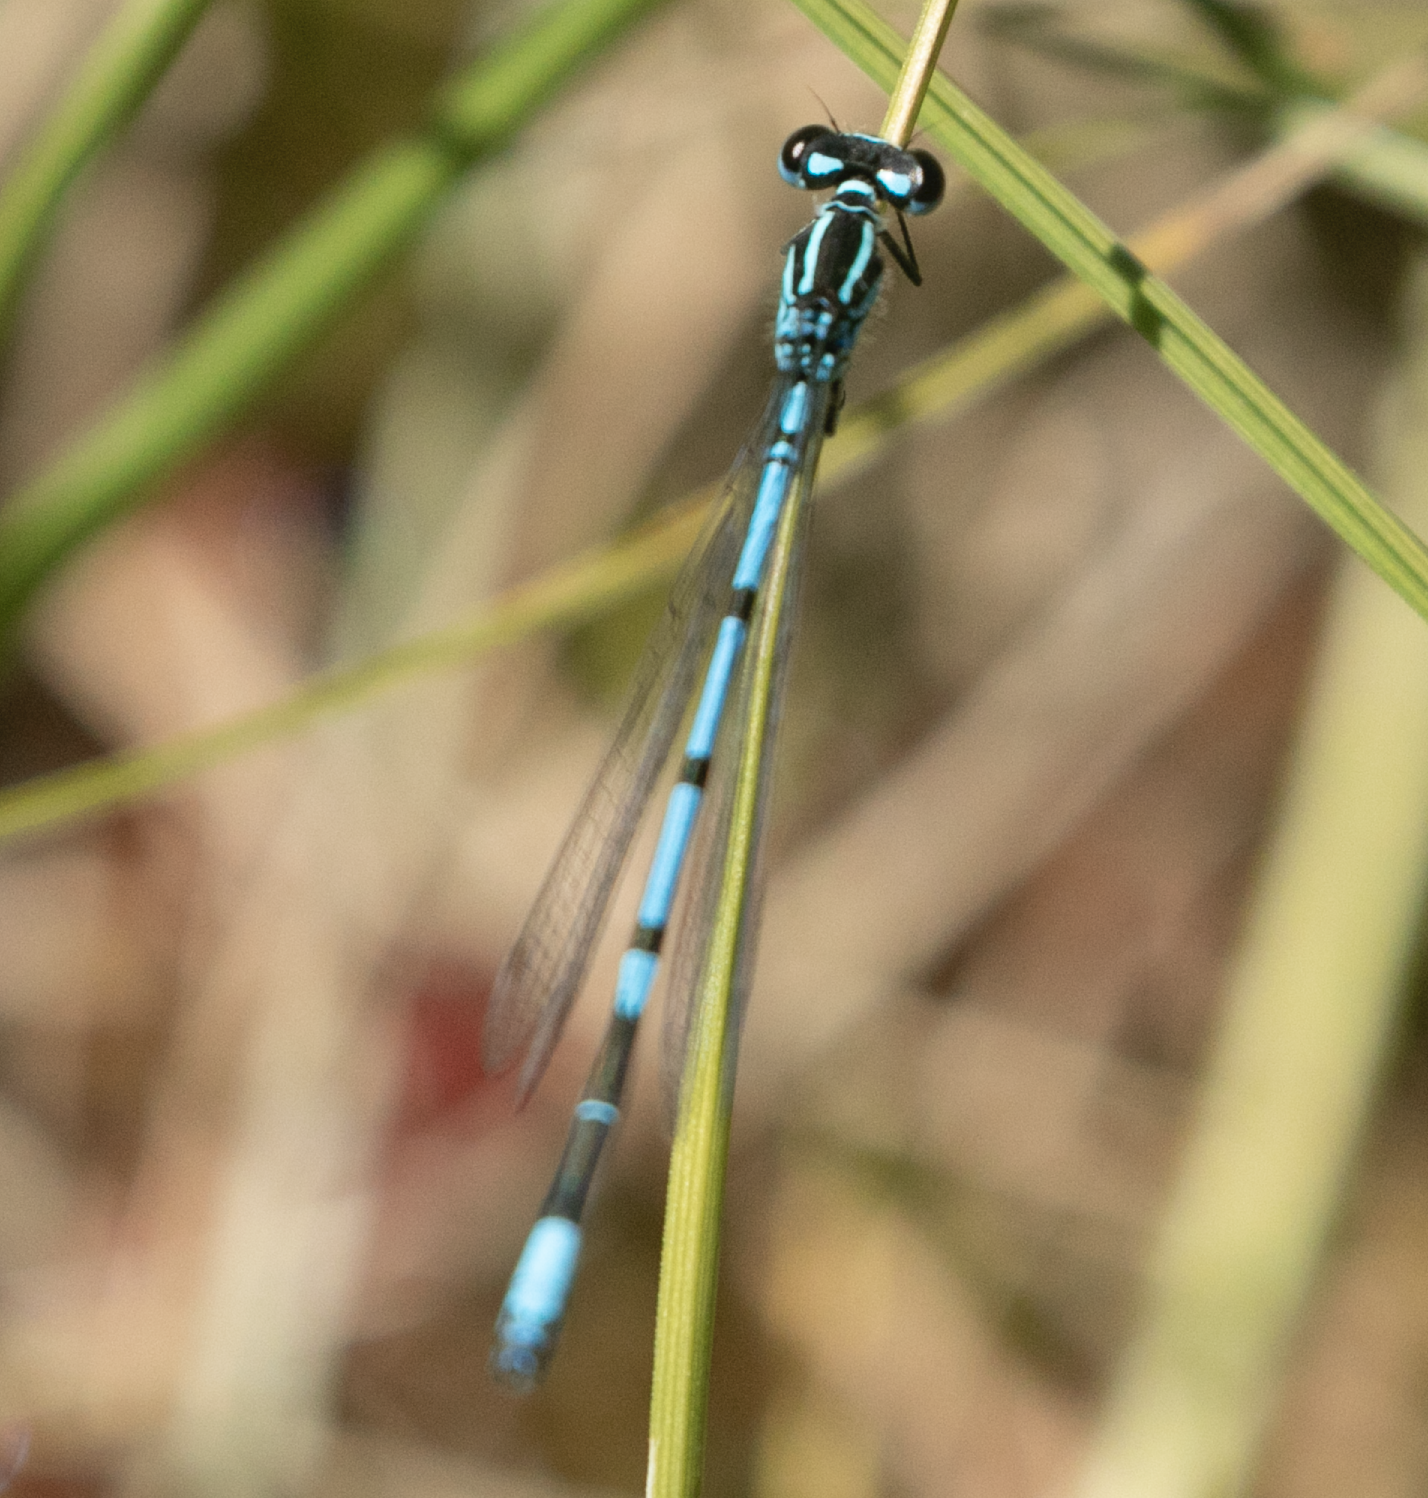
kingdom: Animalia
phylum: Arthropoda
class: Insecta
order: Odonata
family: Coenagrionidae
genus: Coenagrion
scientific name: Coenagrion puella
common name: Azure damselfly
